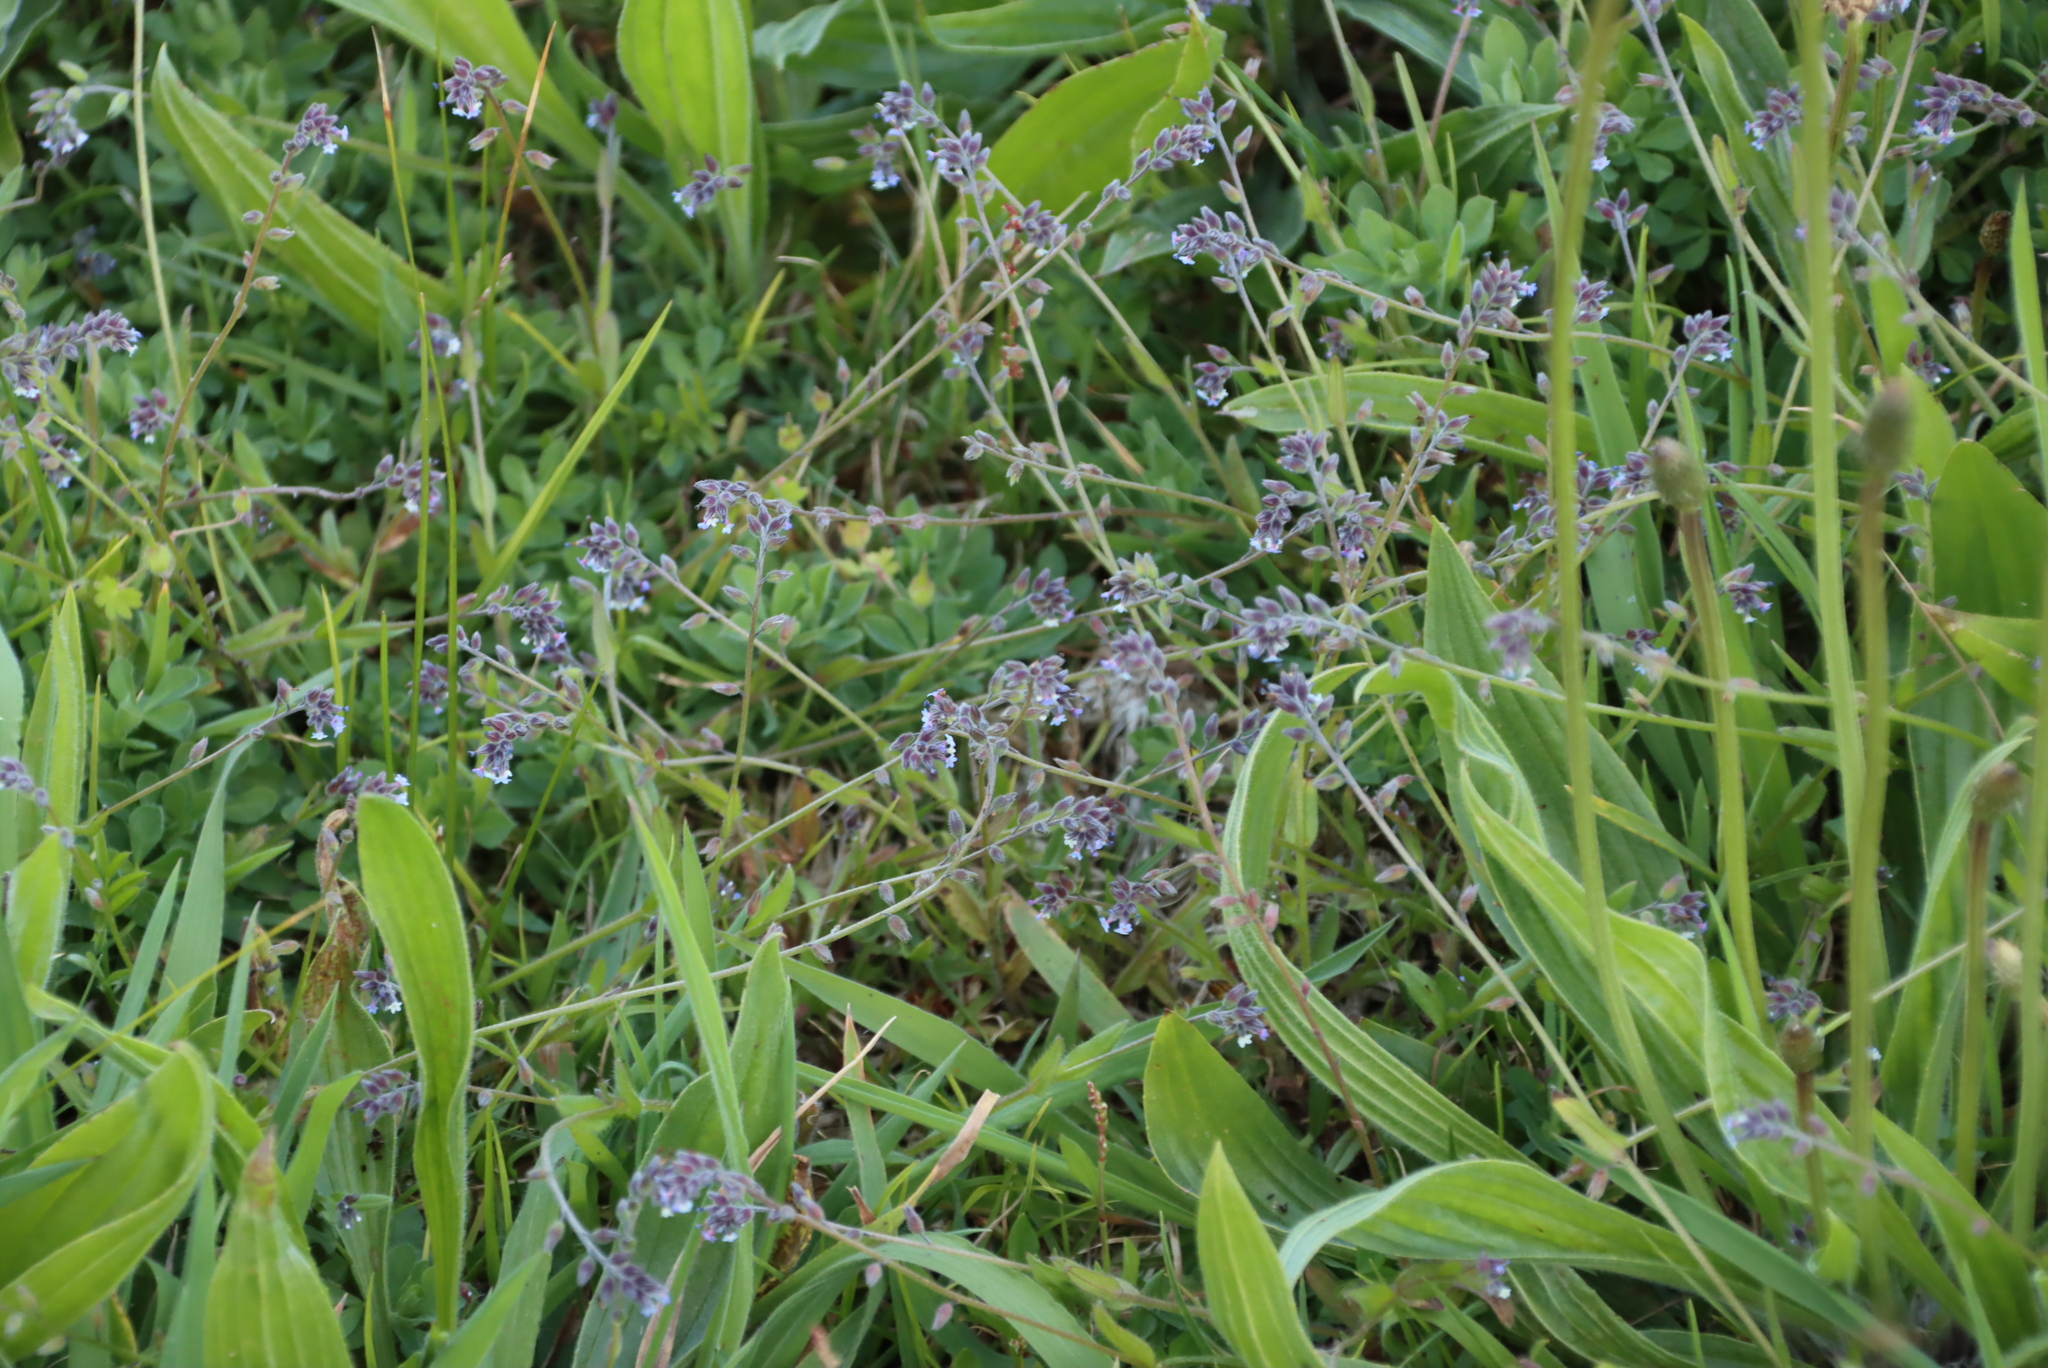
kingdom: Plantae
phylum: Tracheophyta
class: Magnoliopsida
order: Boraginales
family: Boraginaceae
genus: Myosotis
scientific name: Myosotis discolor
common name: Changing forget-me-not
